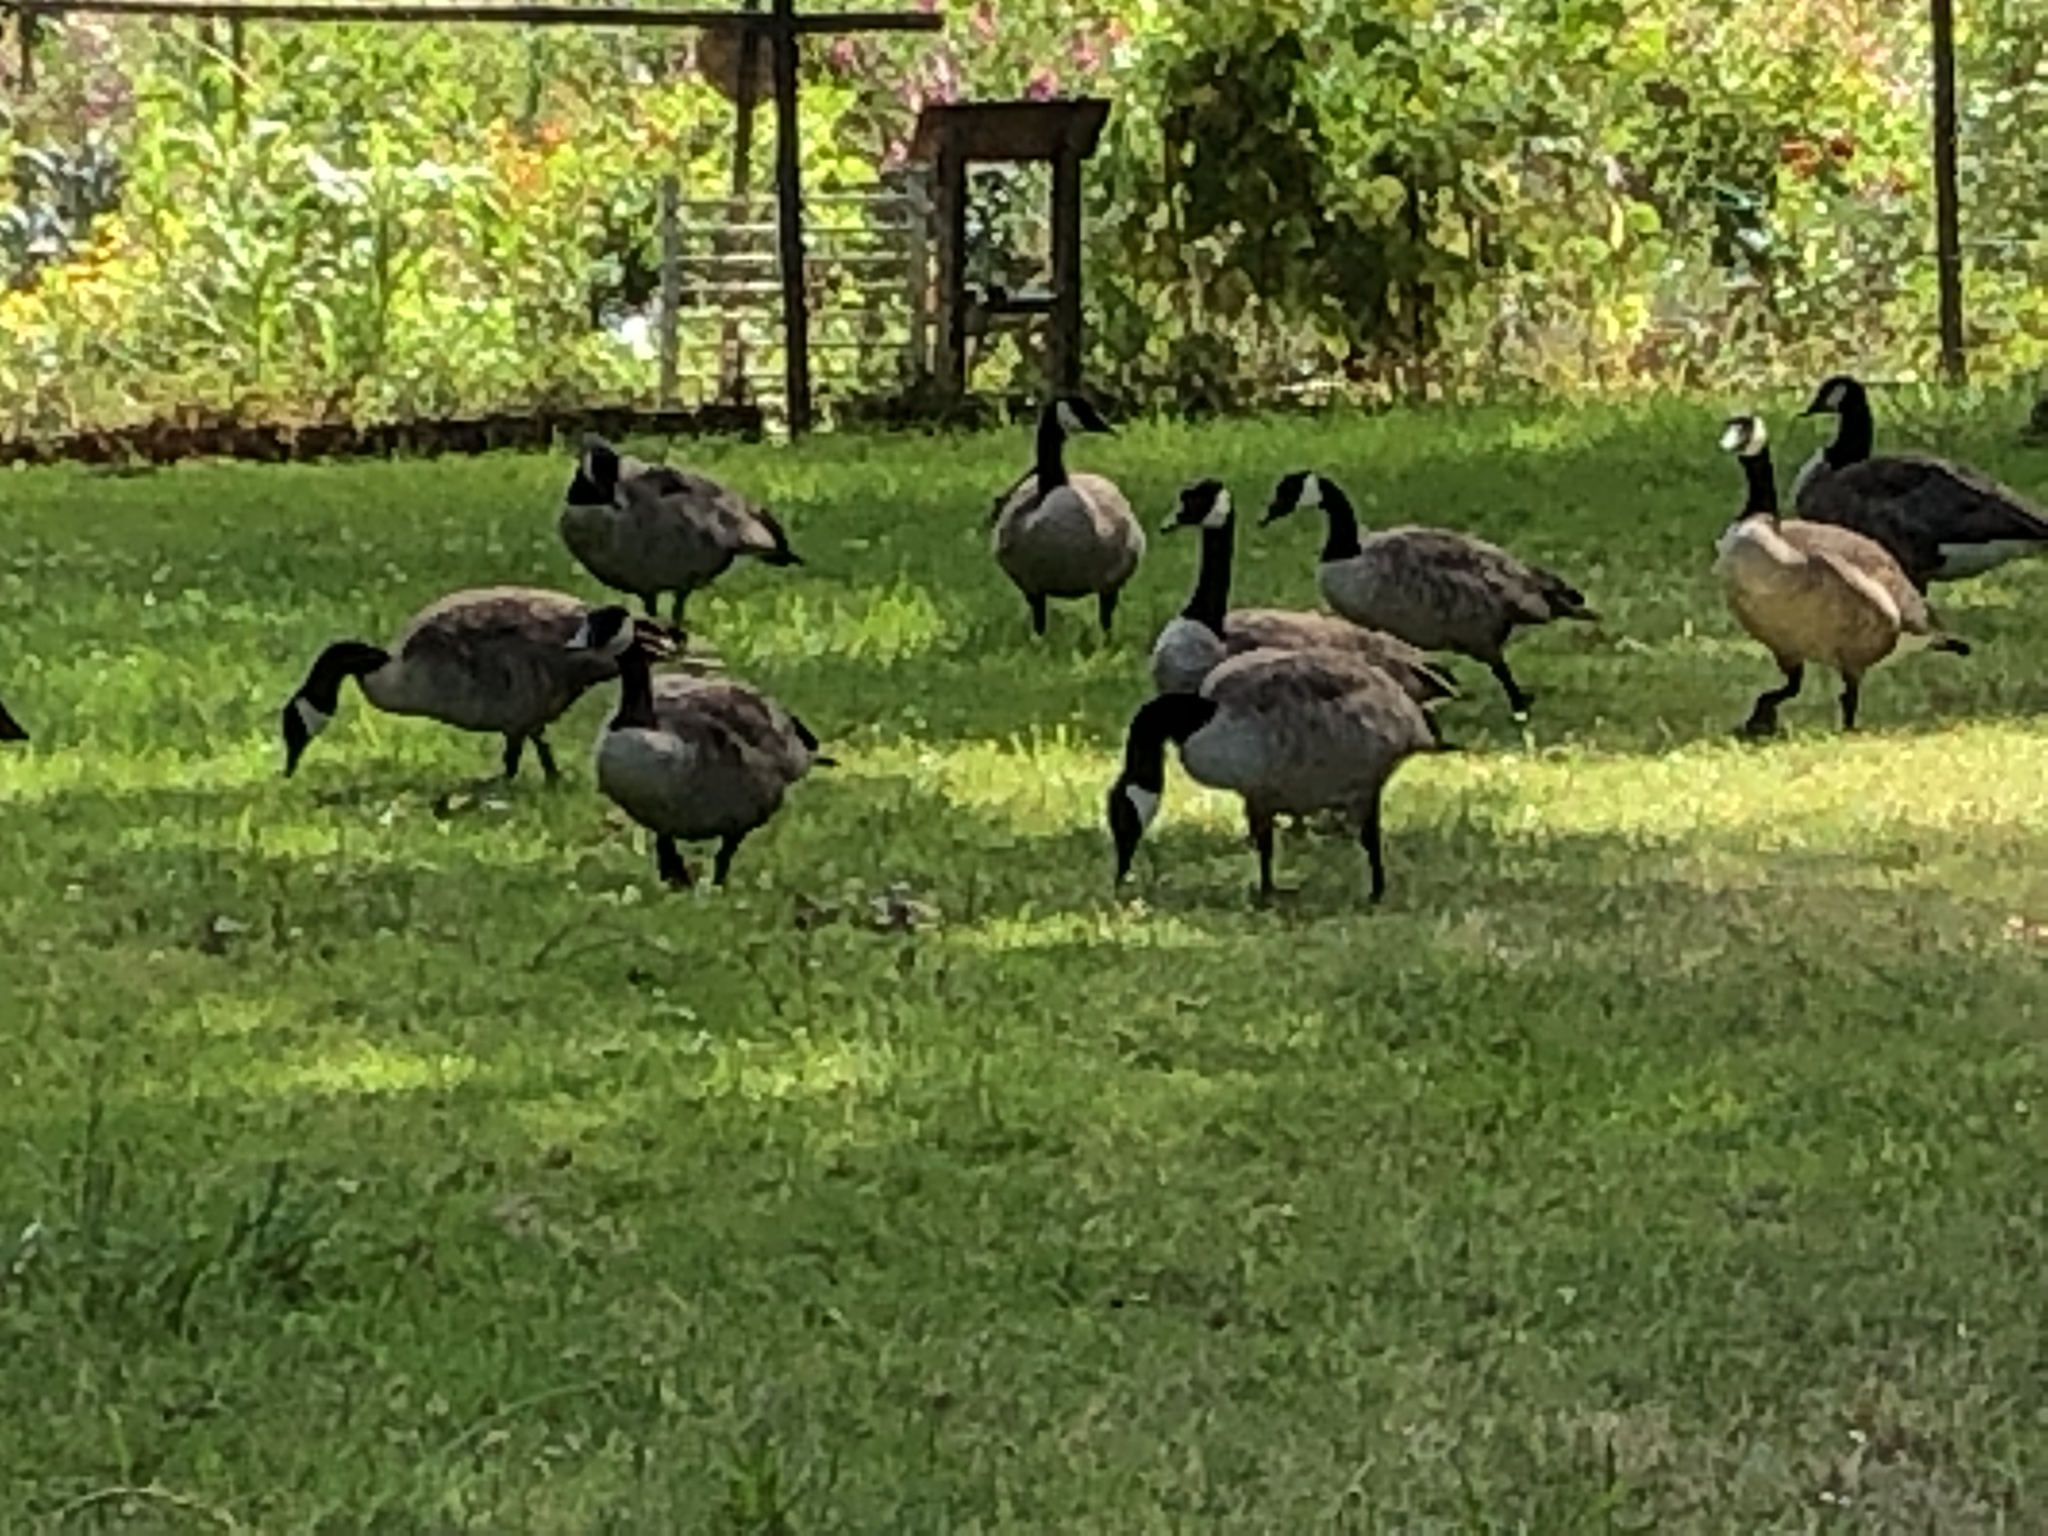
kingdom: Animalia
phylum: Chordata
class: Aves
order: Anseriformes
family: Anatidae
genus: Branta
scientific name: Branta canadensis
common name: Canada goose
